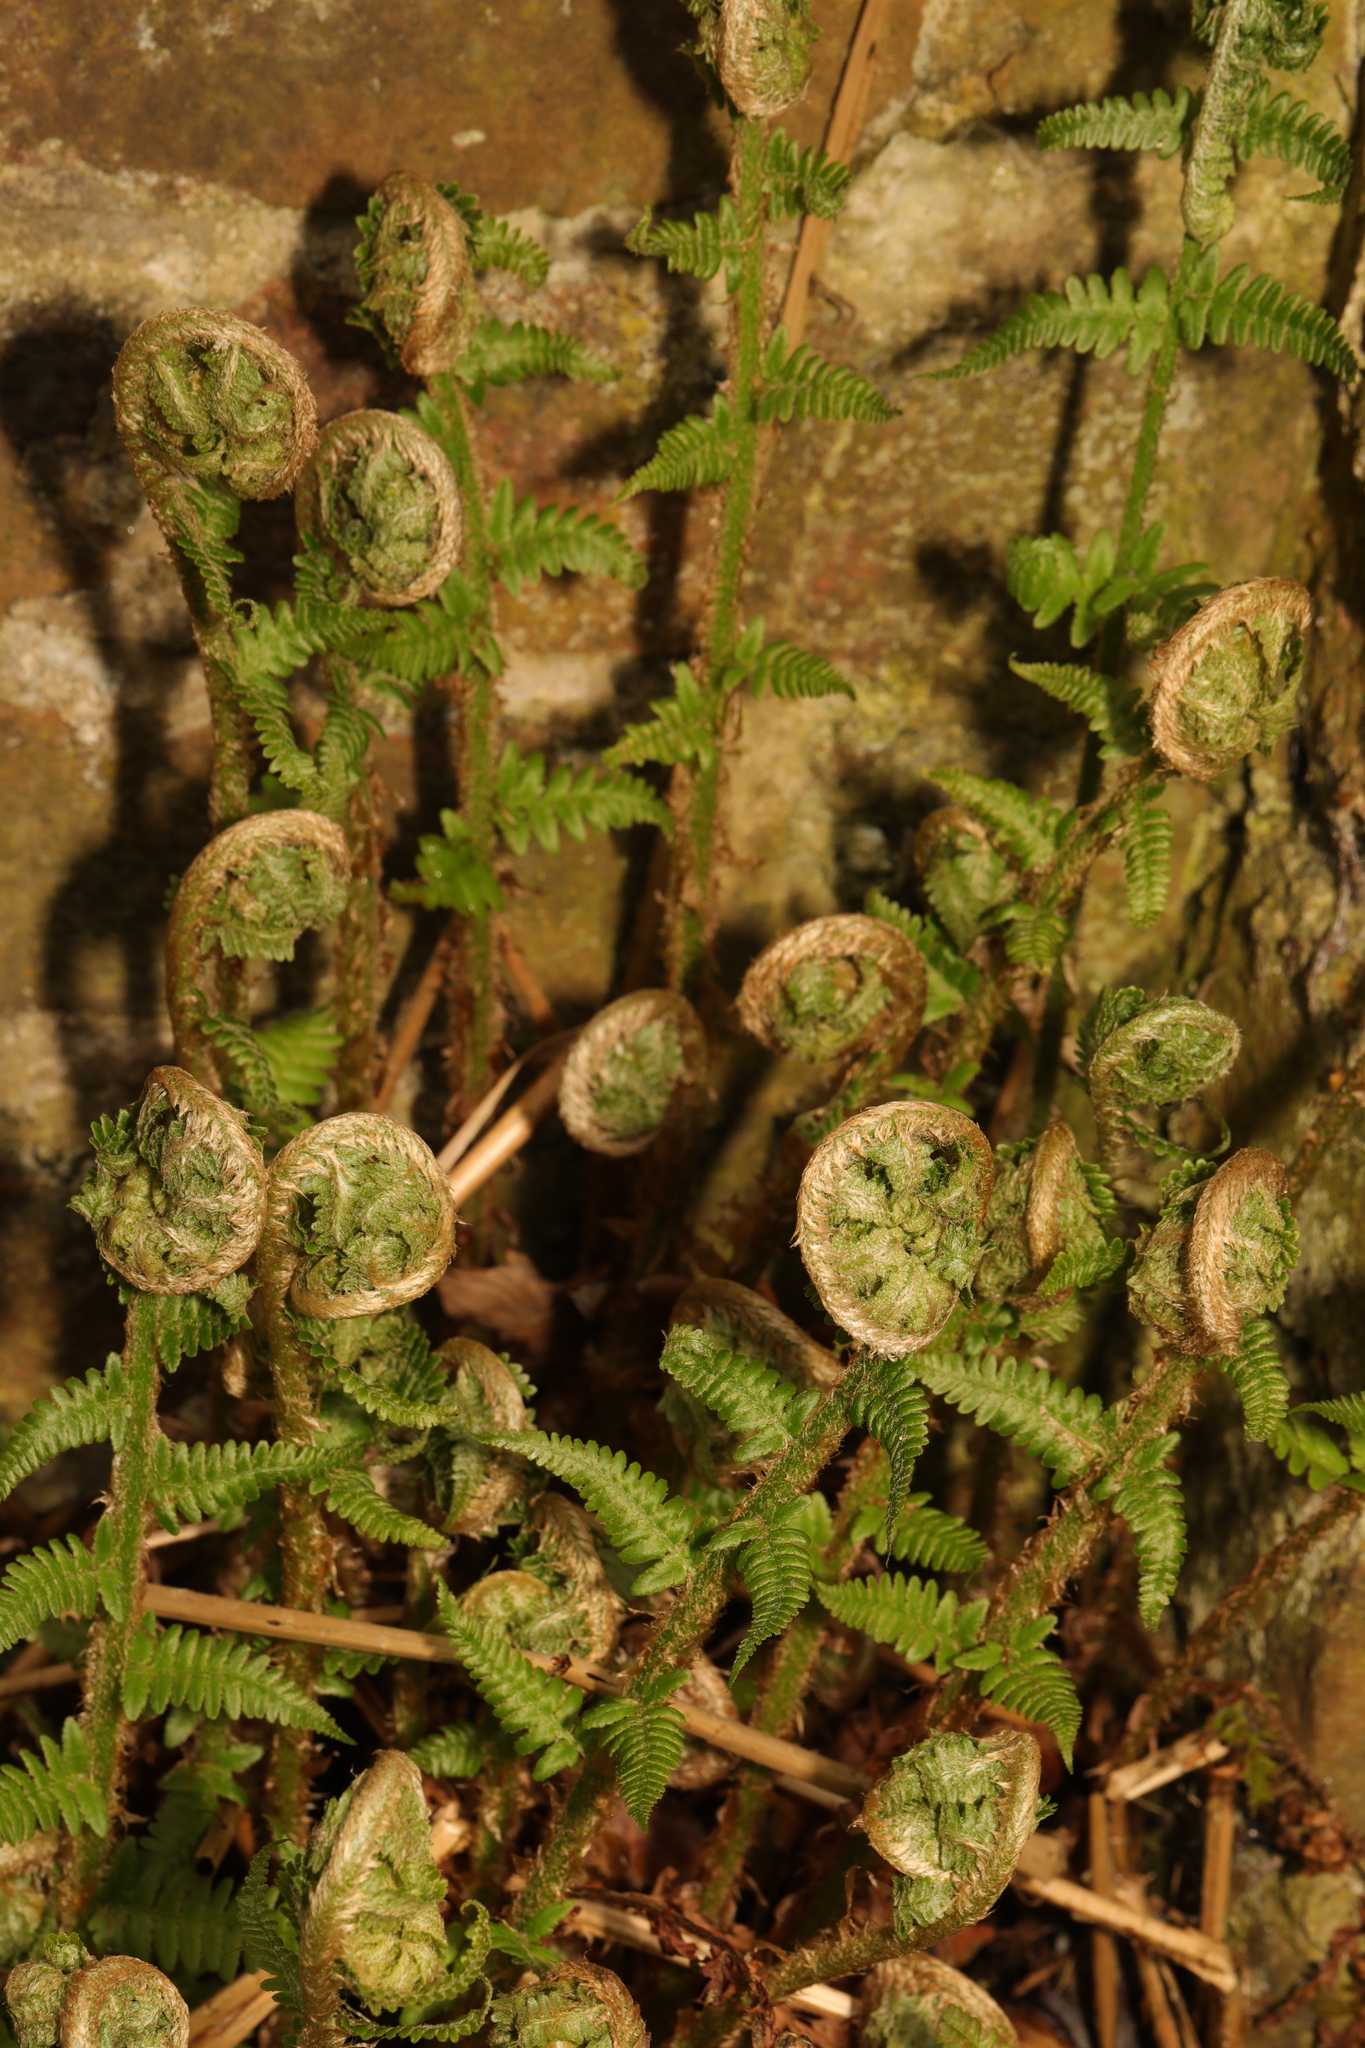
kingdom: Plantae
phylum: Tracheophyta
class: Polypodiopsida
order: Polypodiales
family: Dryopteridaceae
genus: Dryopteris
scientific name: Dryopteris filix-mas
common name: Male fern
